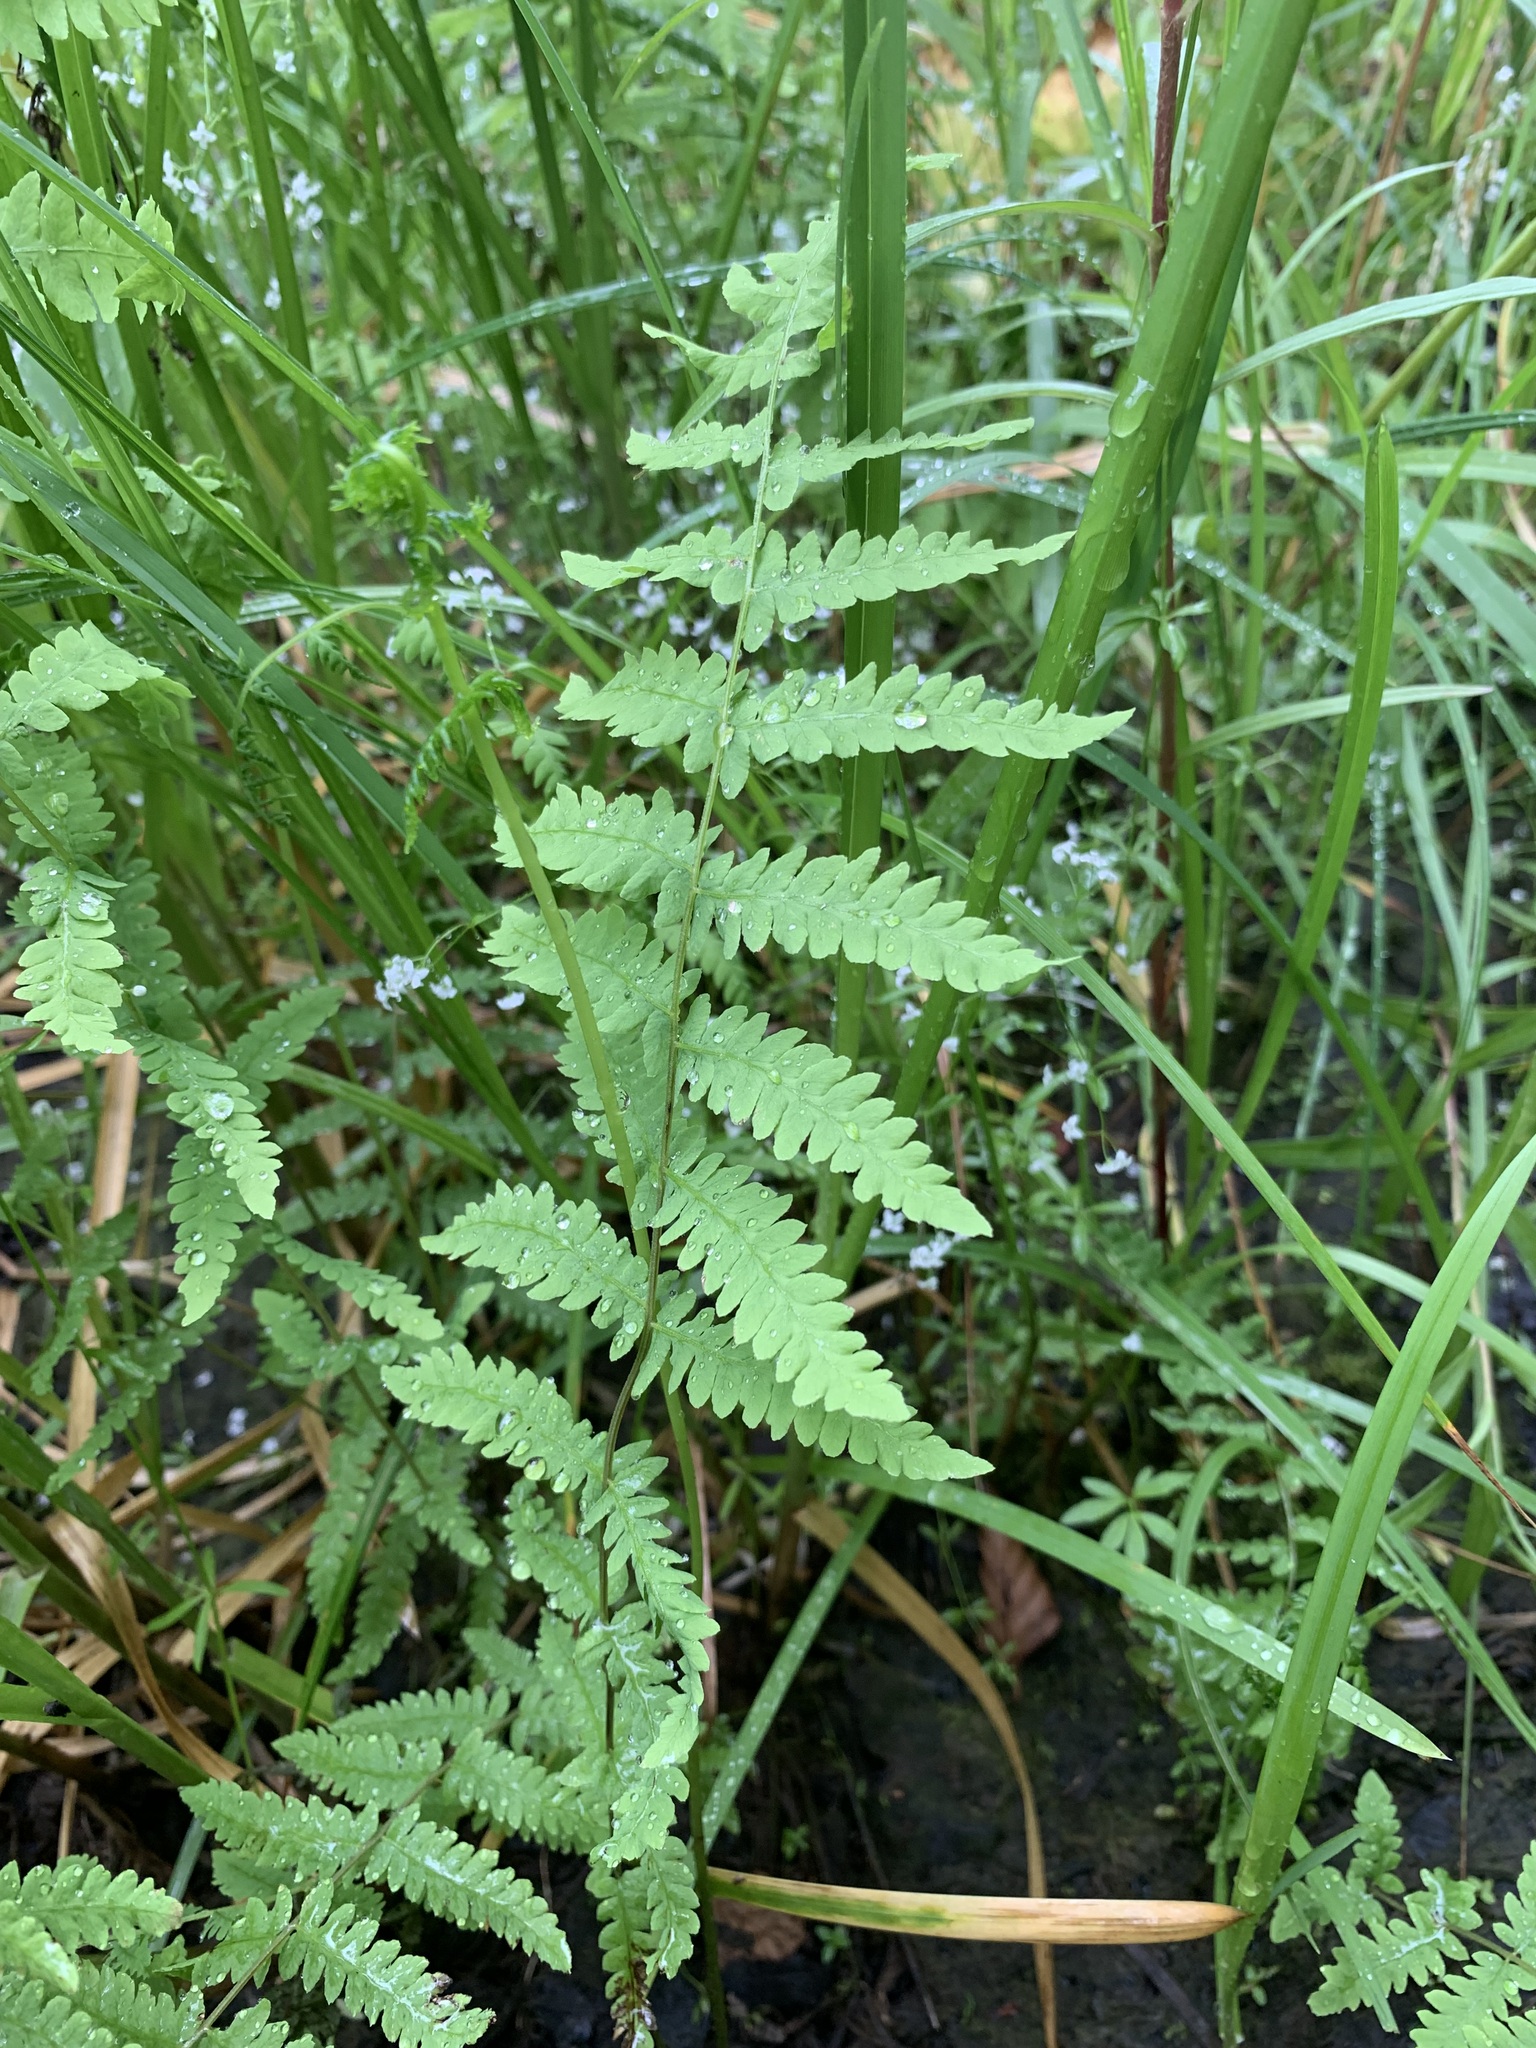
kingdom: Plantae
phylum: Tracheophyta
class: Polypodiopsida
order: Polypodiales
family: Thelypteridaceae
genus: Thelypteris
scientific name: Thelypteris palustris
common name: Marsh fern
